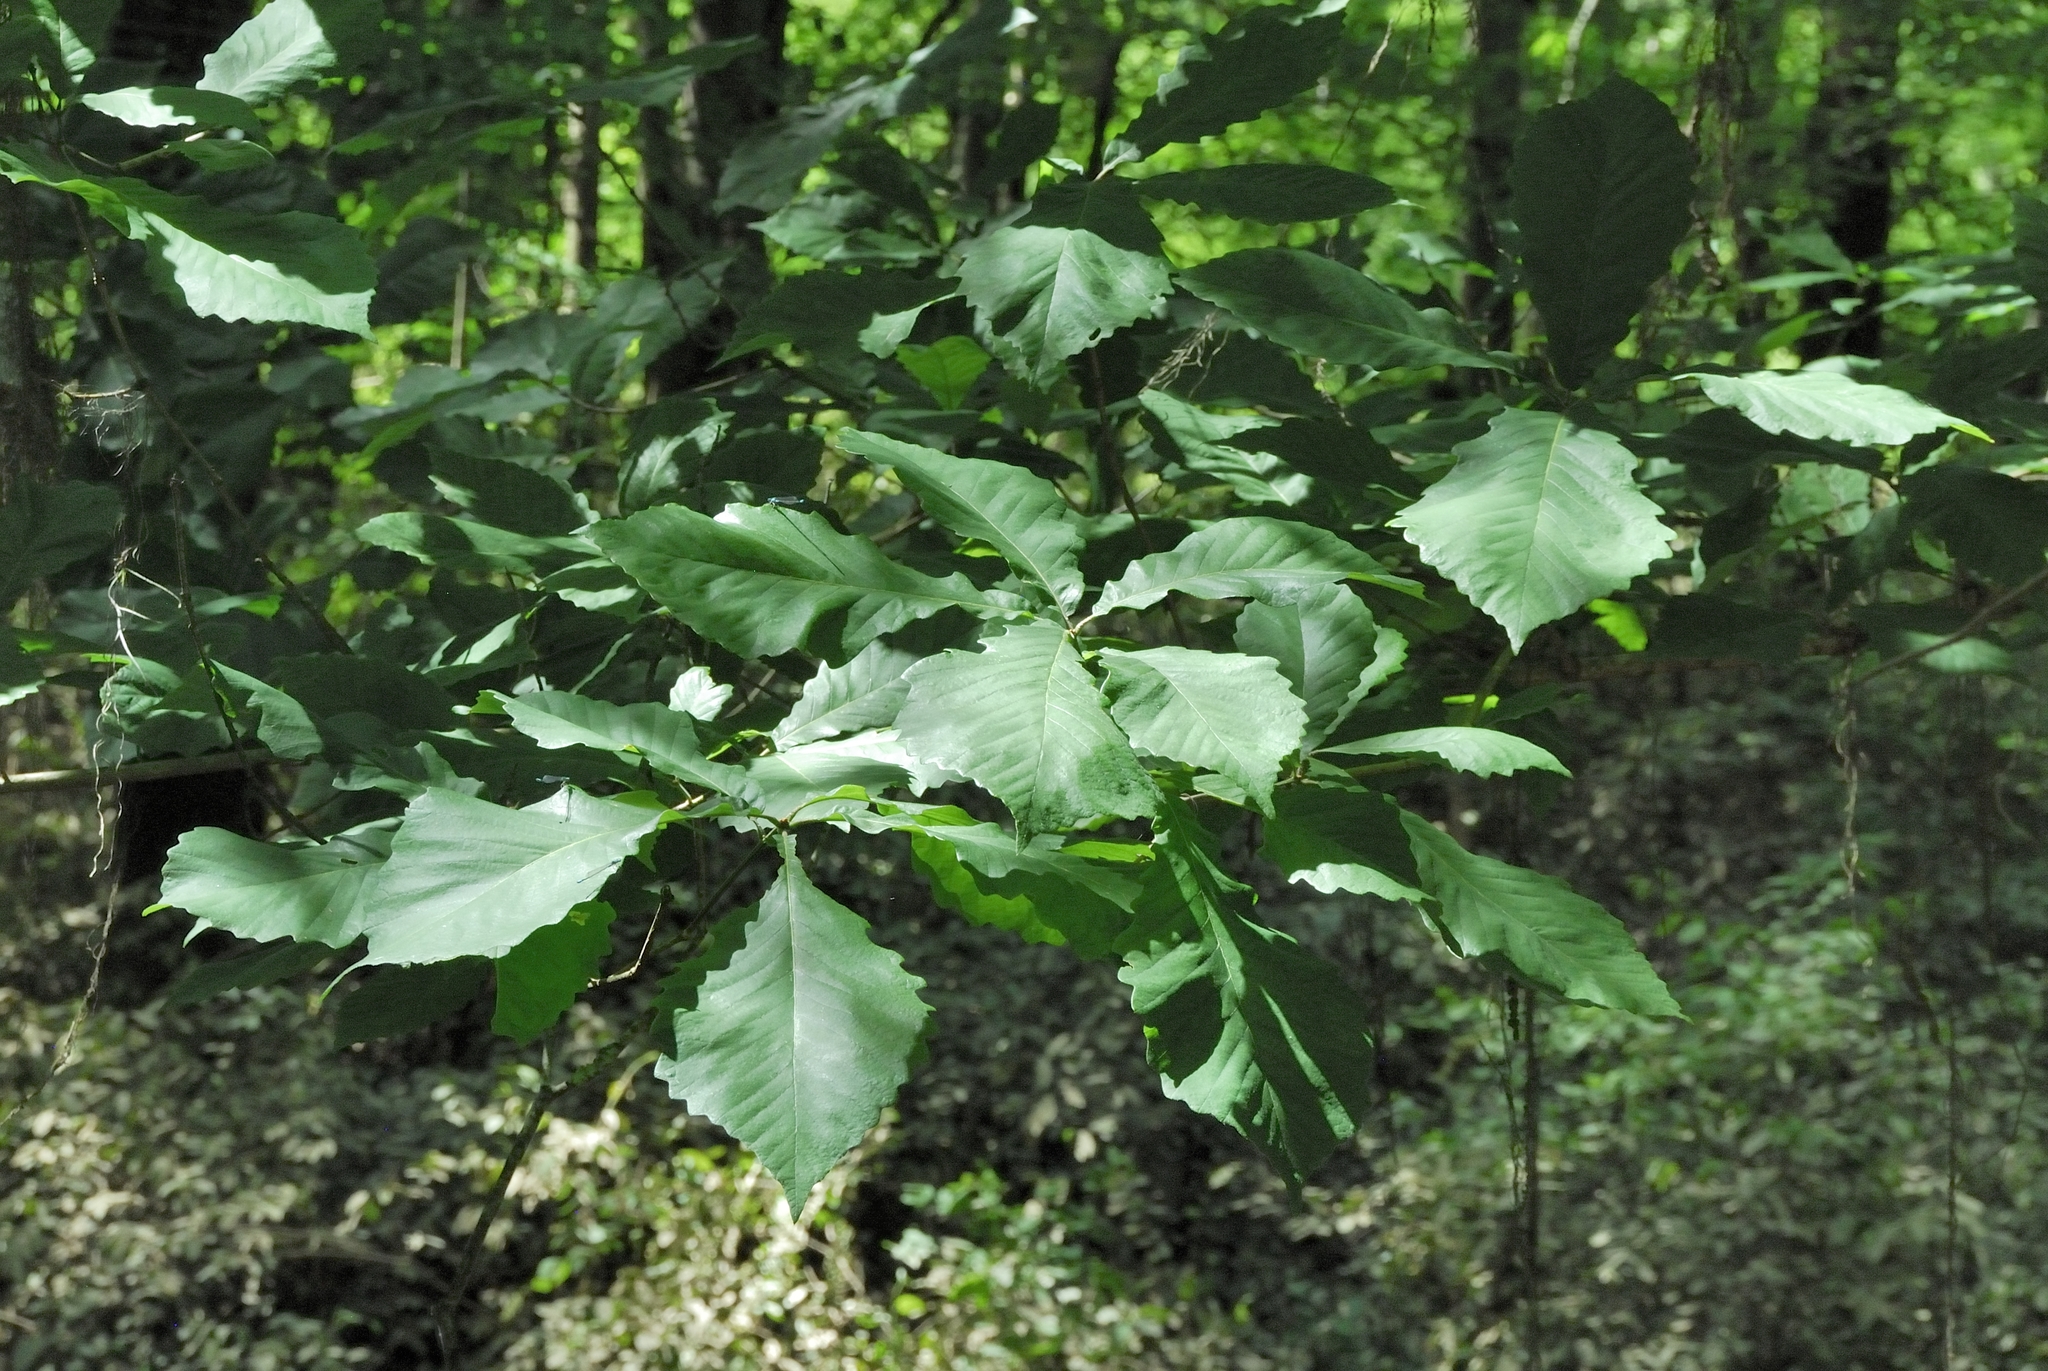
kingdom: Plantae
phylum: Tracheophyta
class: Magnoliopsida
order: Fagales
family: Fagaceae
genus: Quercus
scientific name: Quercus michauxii
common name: Swamp chestnut oak
